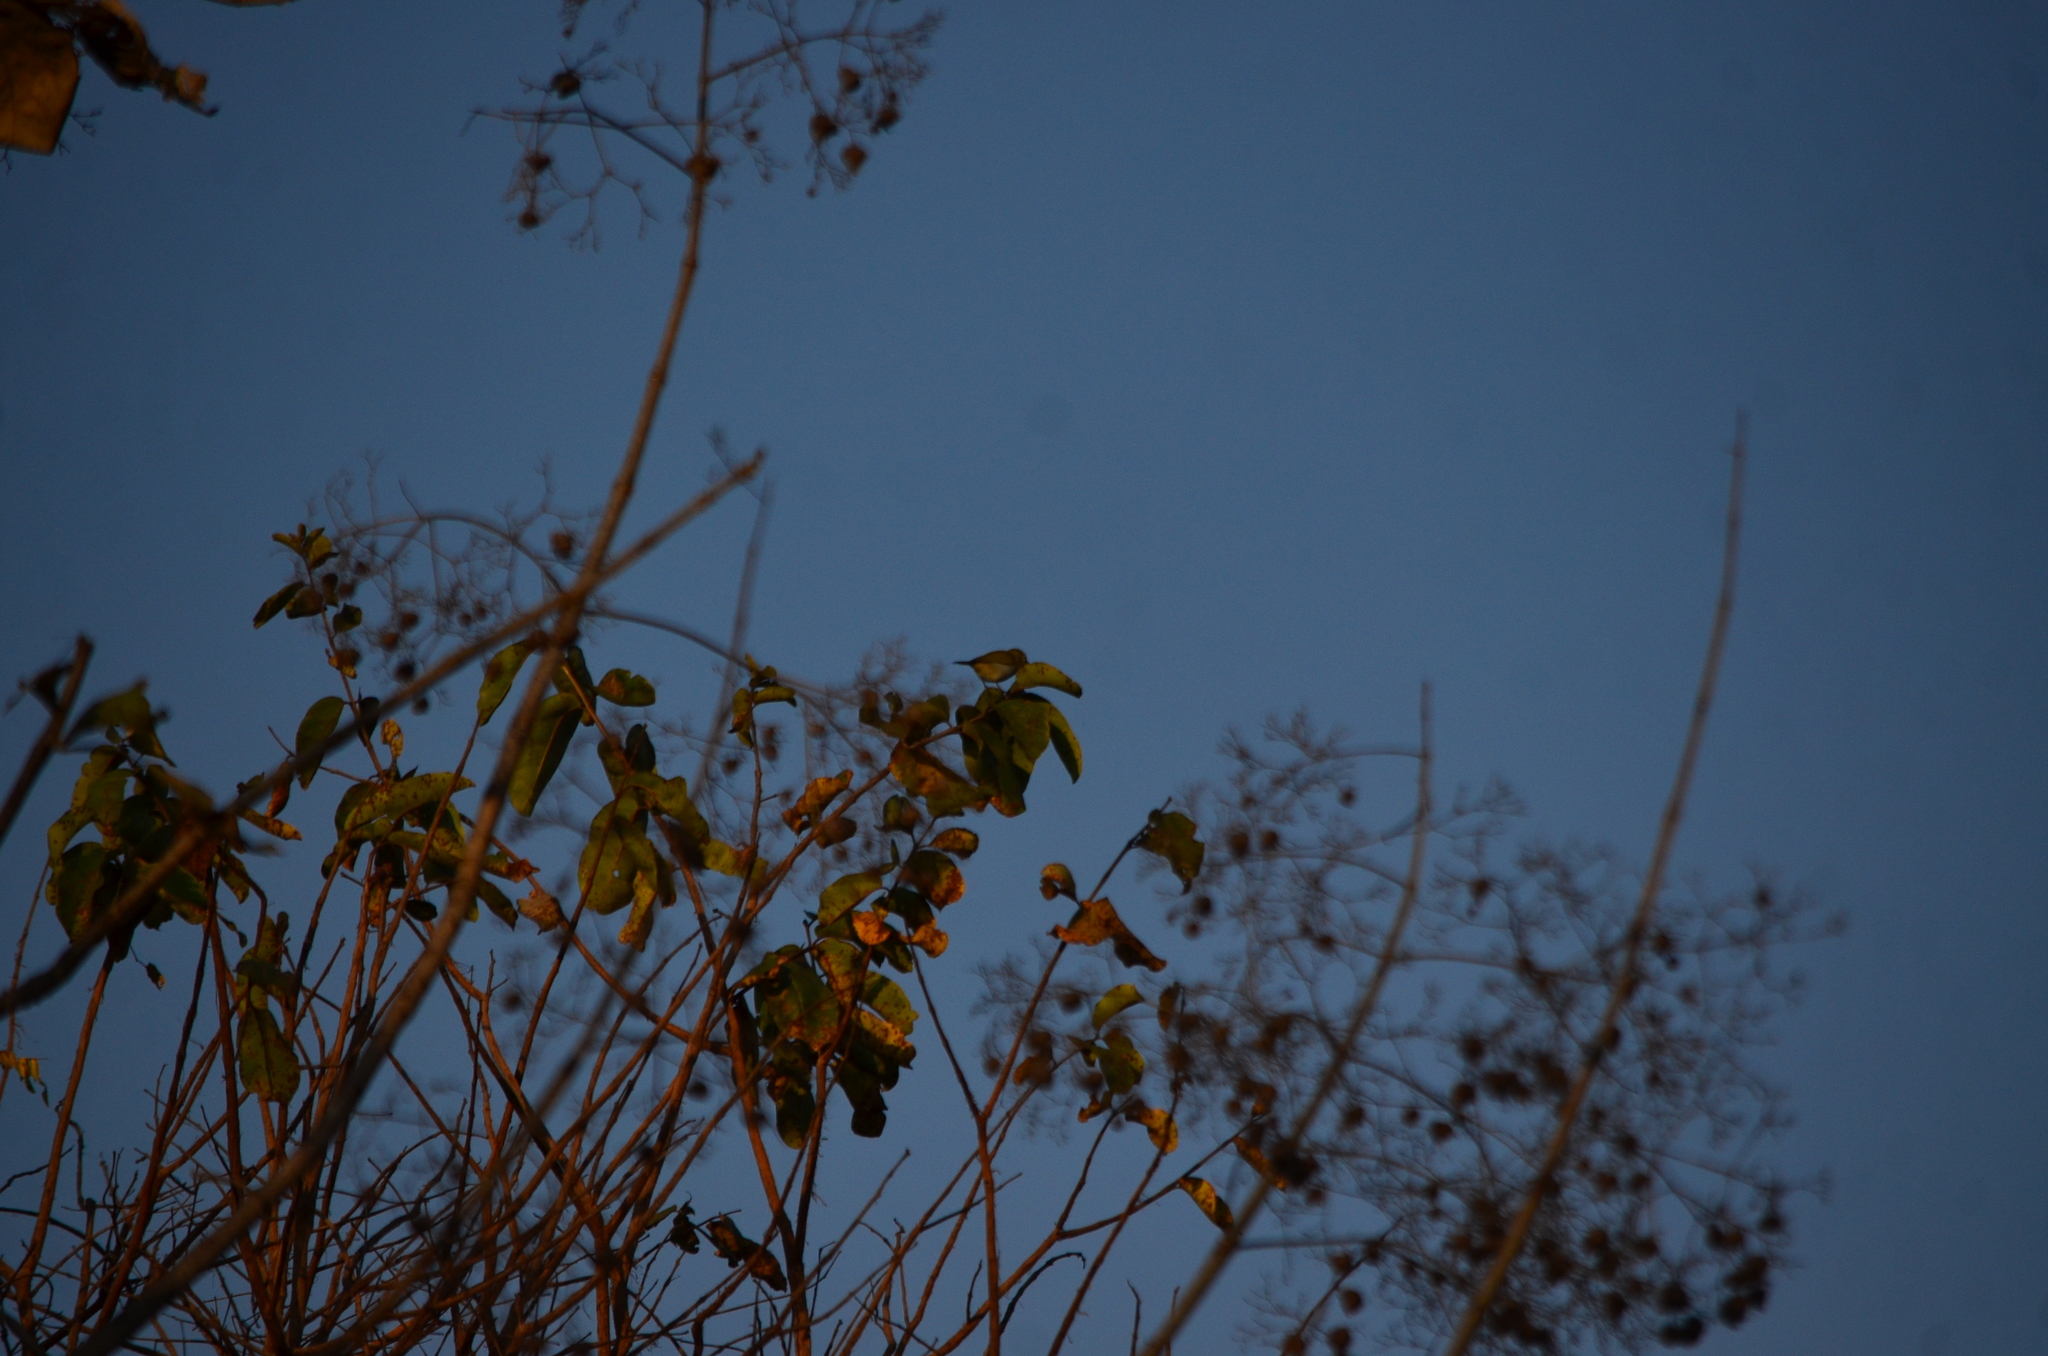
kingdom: Animalia
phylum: Chordata
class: Aves
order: Passeriformes
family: Zosteropidae
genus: Zosterops
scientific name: Zosterops palpebrosus
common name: Oriental white-eye
